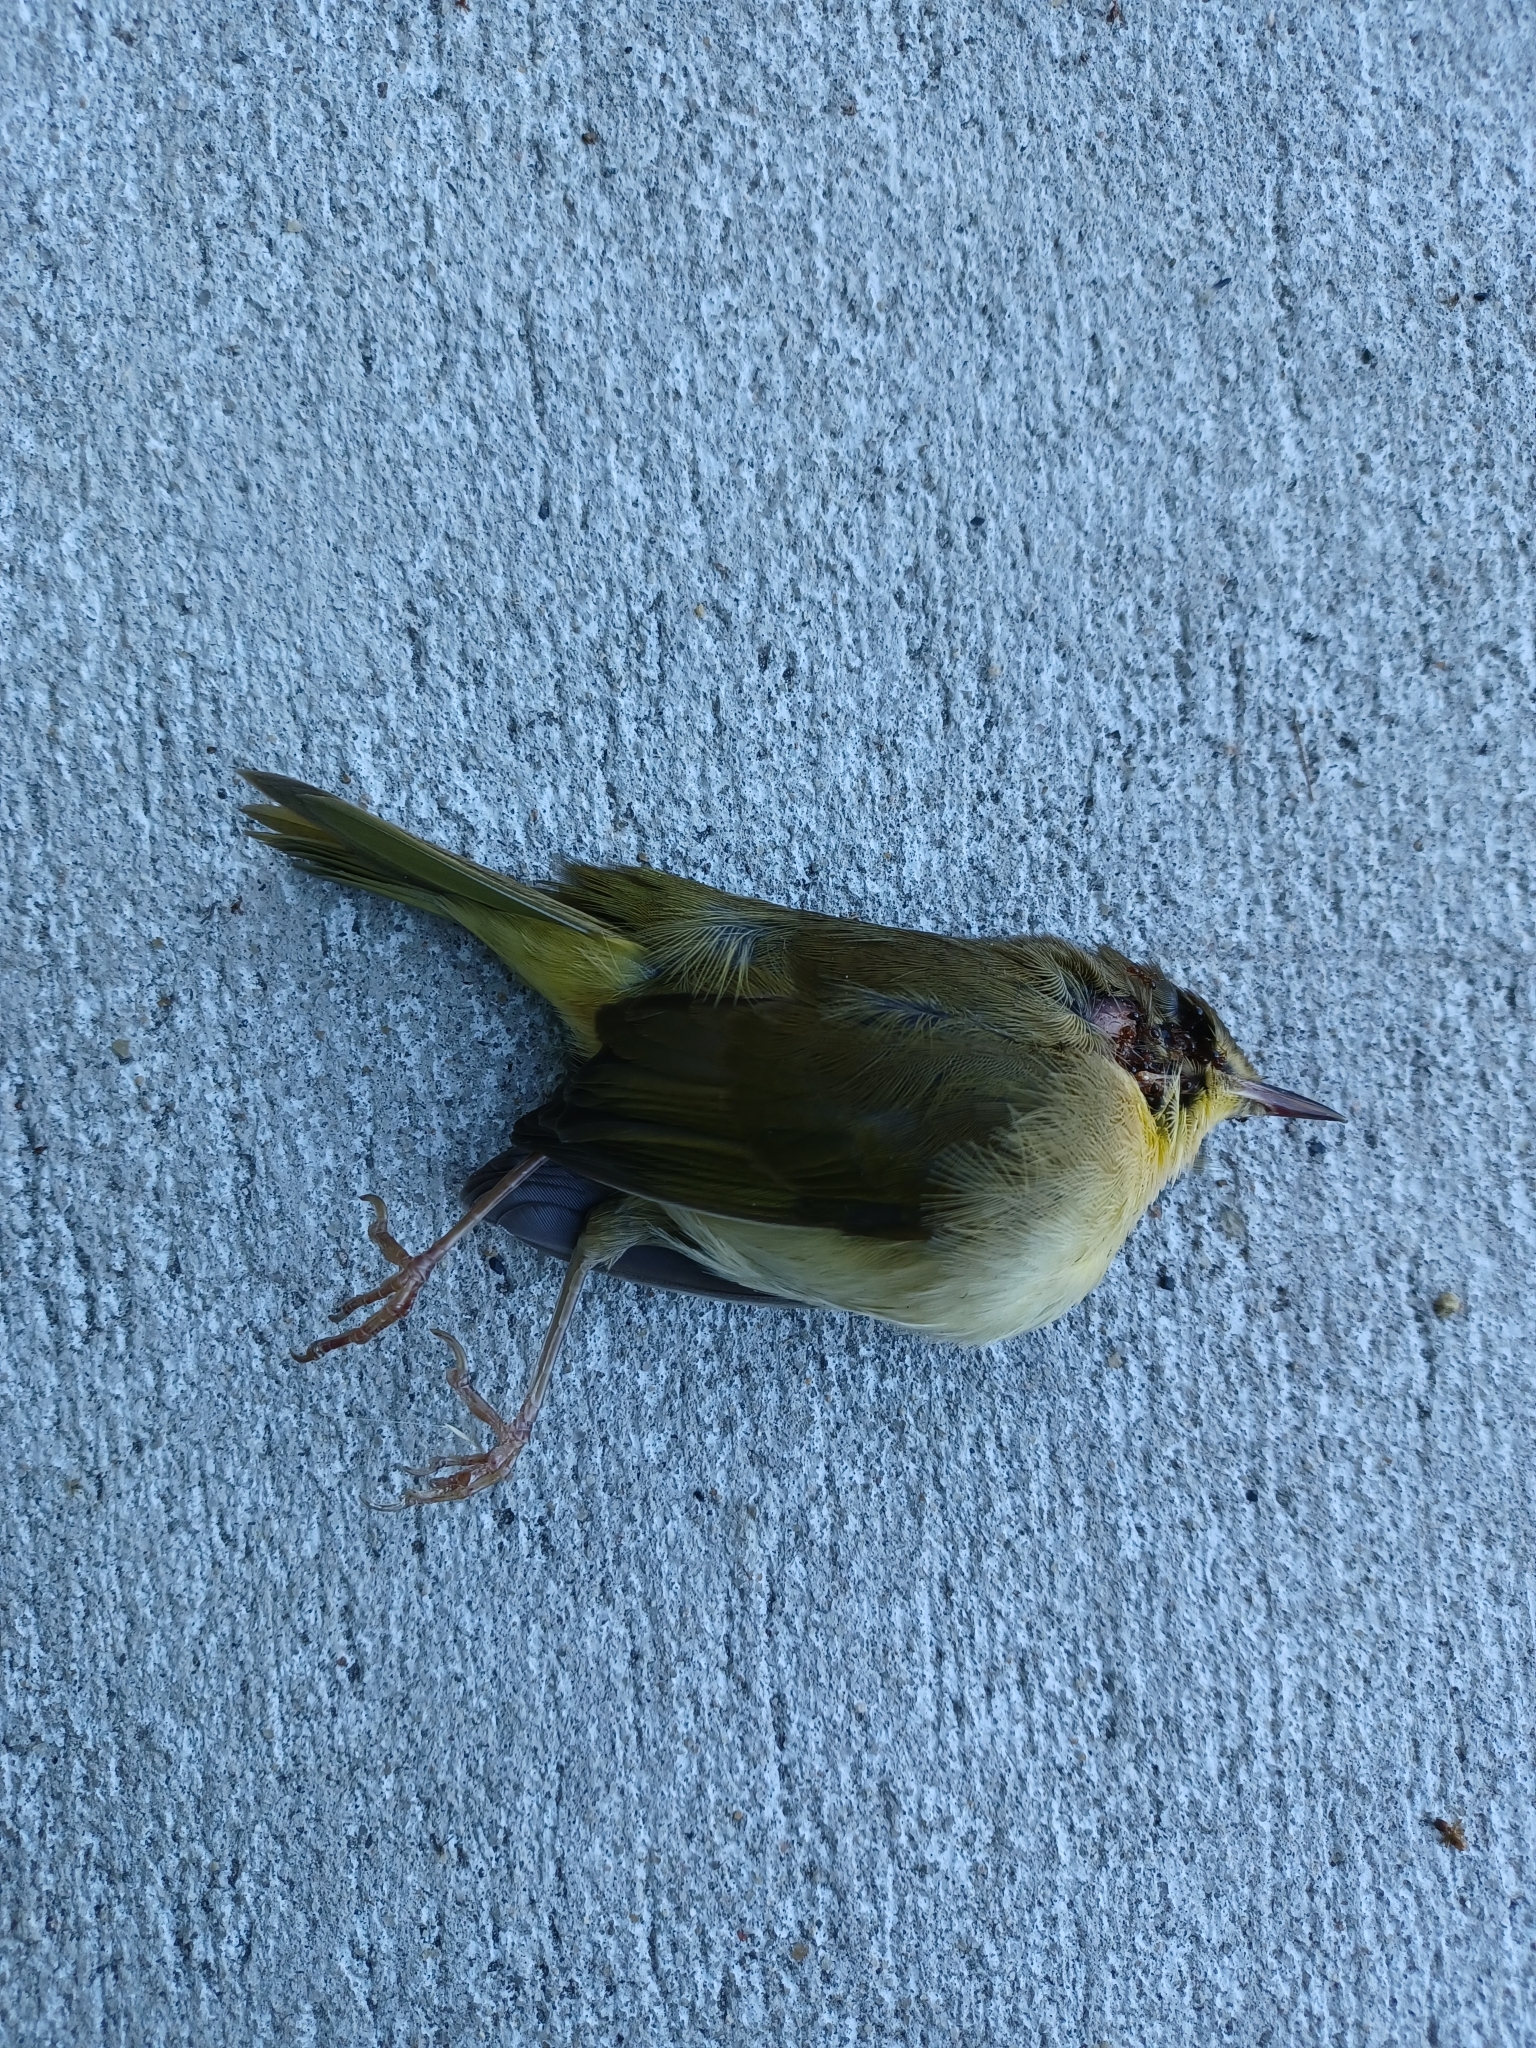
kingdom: Animalia
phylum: Chordata
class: Aves
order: Passeriformes
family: Parulidae
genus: Geothlypis
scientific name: Geothlypis trichas
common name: Common yellowthroat
